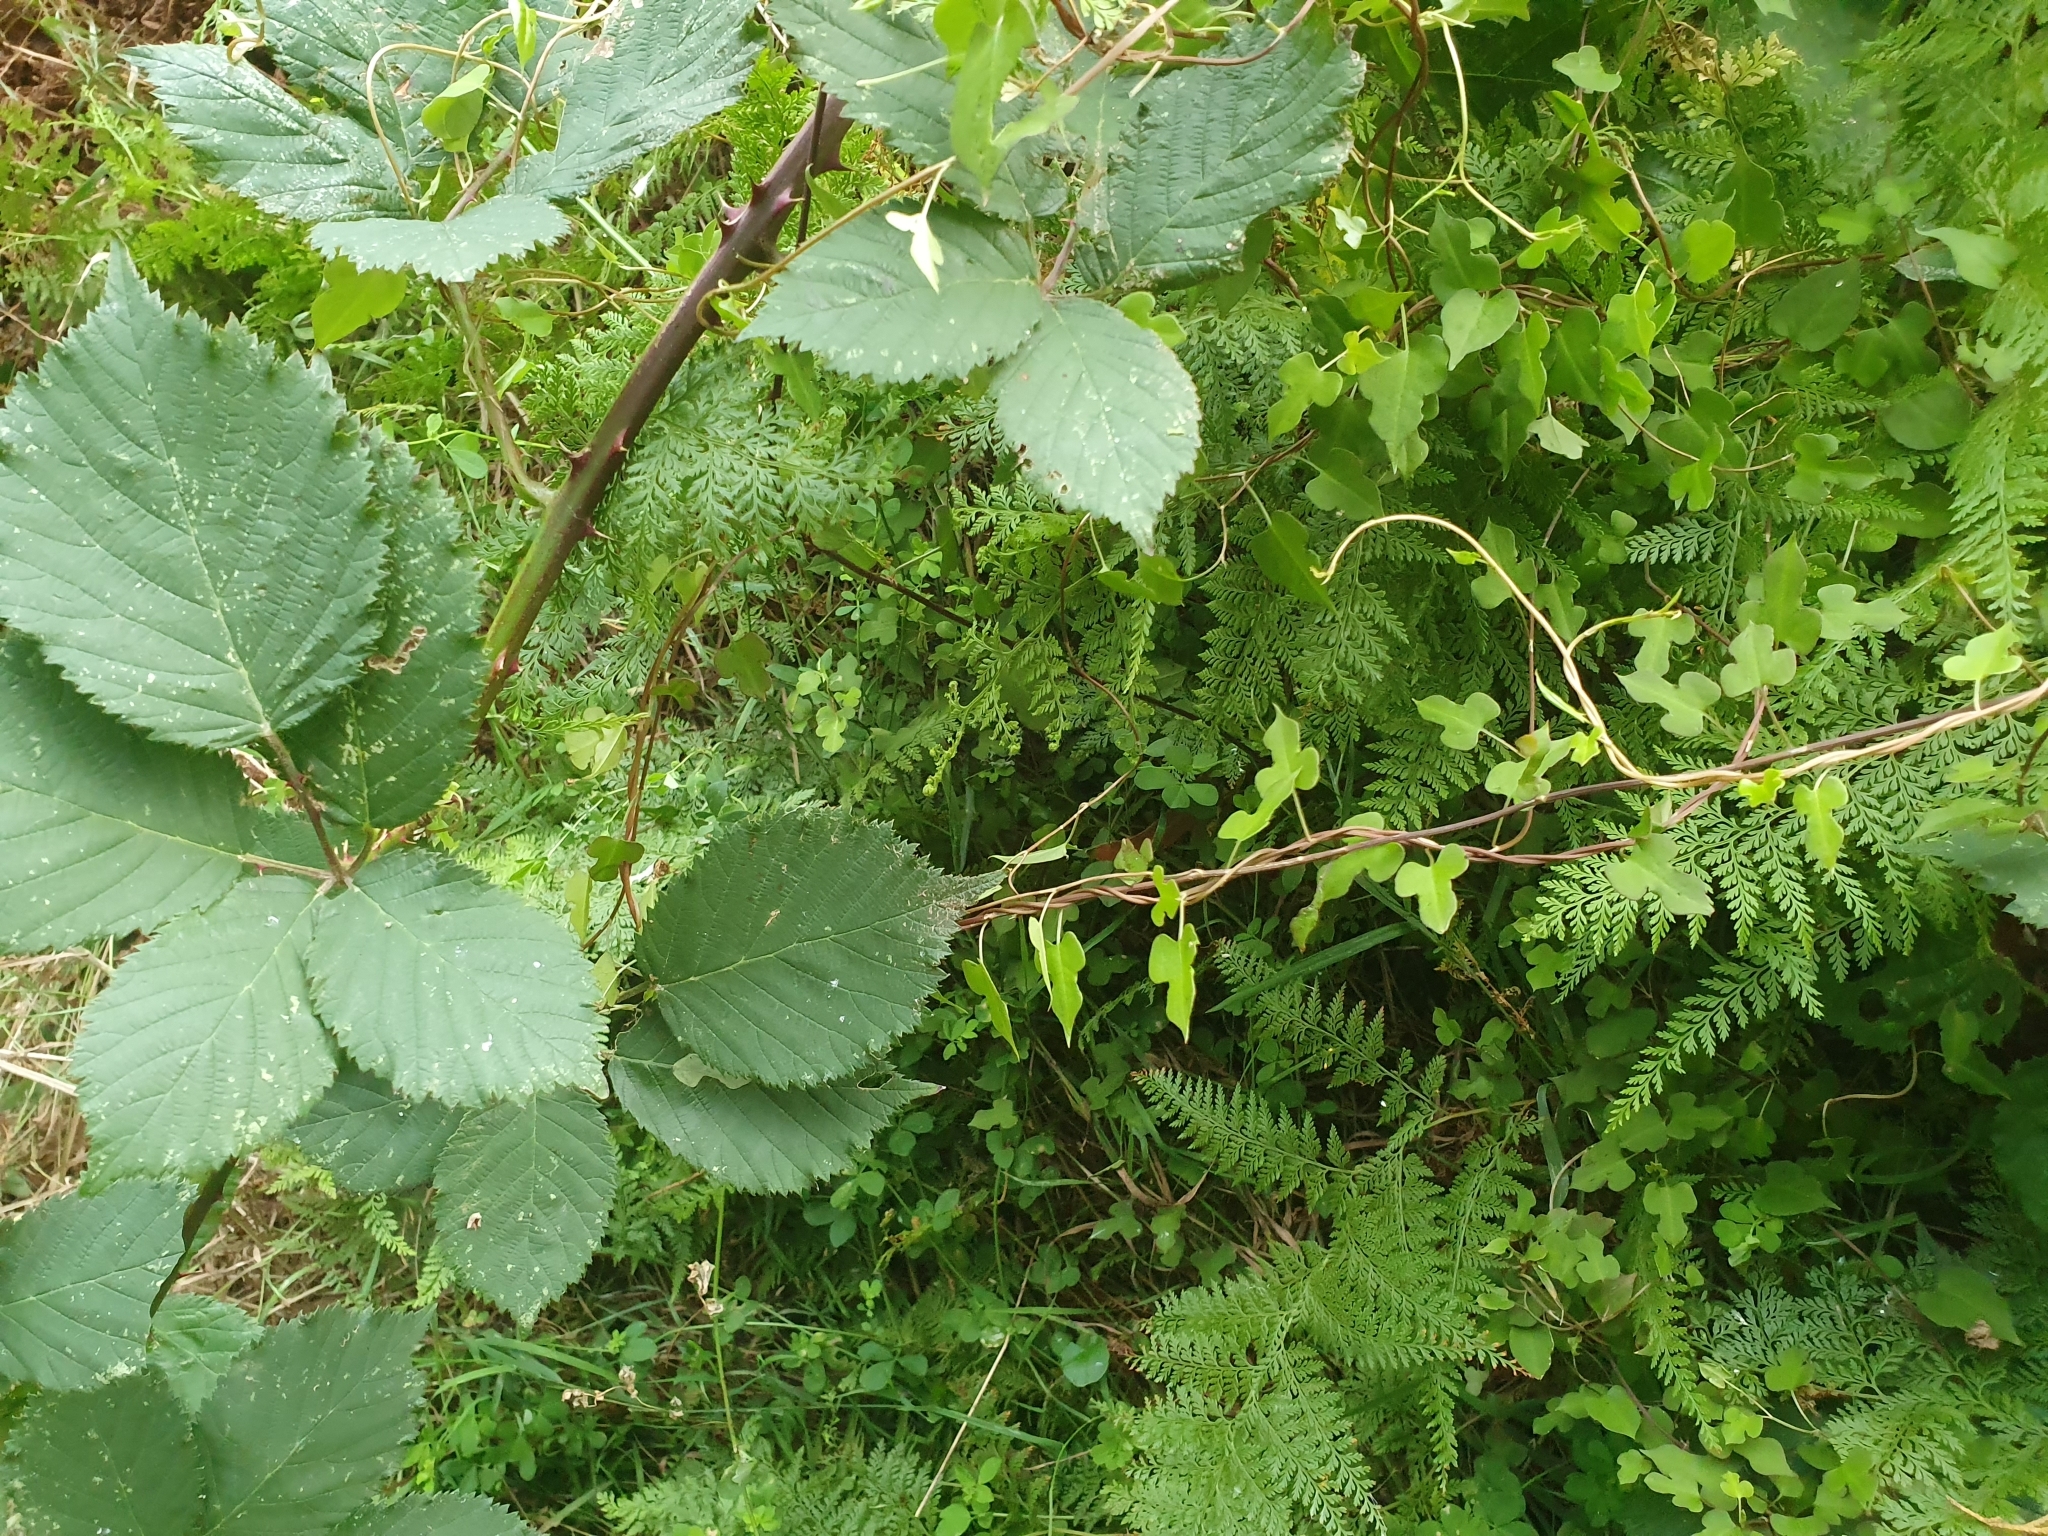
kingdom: Plantae
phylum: Tracheophyta
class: Magnoliopsida
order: Caryophyllales
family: Polygonaceae
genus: Muehlenbeckia
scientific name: Muehlenbeckia australis
